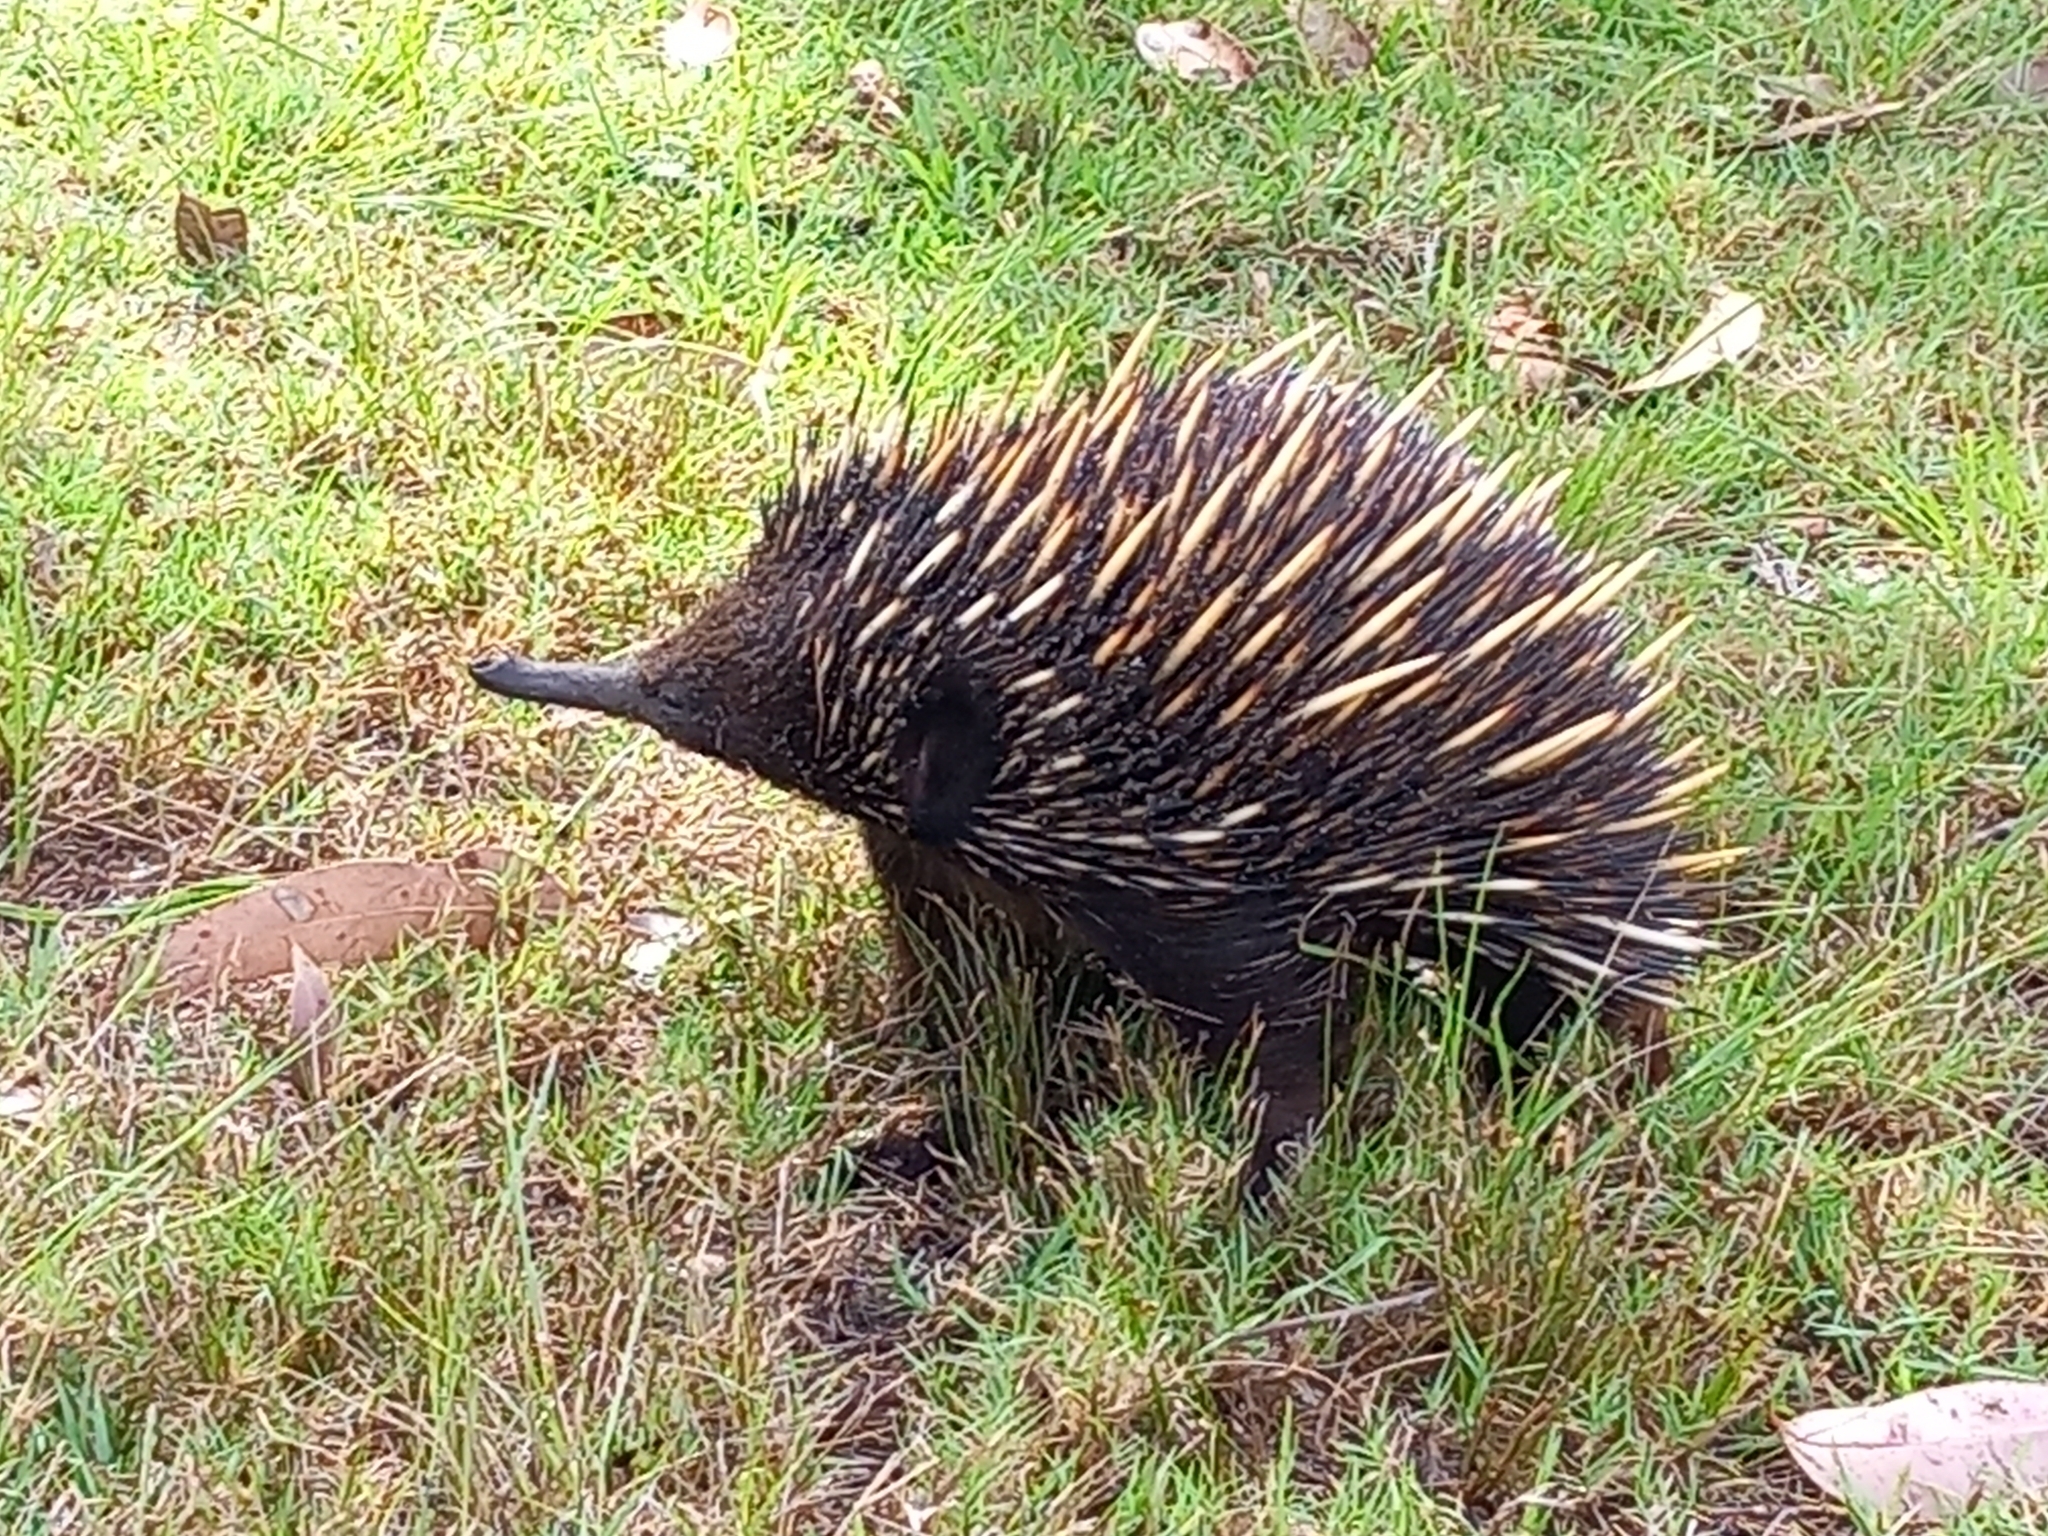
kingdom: Animalia
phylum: Chordata
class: Mammalia
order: Monotremata
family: Tachyglossidae
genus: Tachyglossus
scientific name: Tachyglossus aculeatus
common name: Short-beaked echidna
